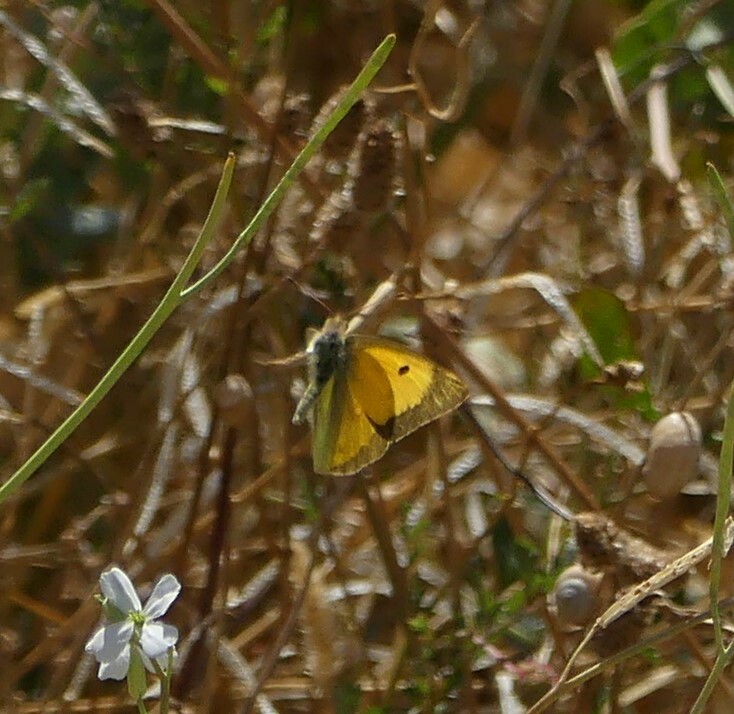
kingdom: Animalia
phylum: Arthropoda
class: Insecta
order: Lepidoptera
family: Pieridae
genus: Colias
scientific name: Colias croceus
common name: Clouded yellow
